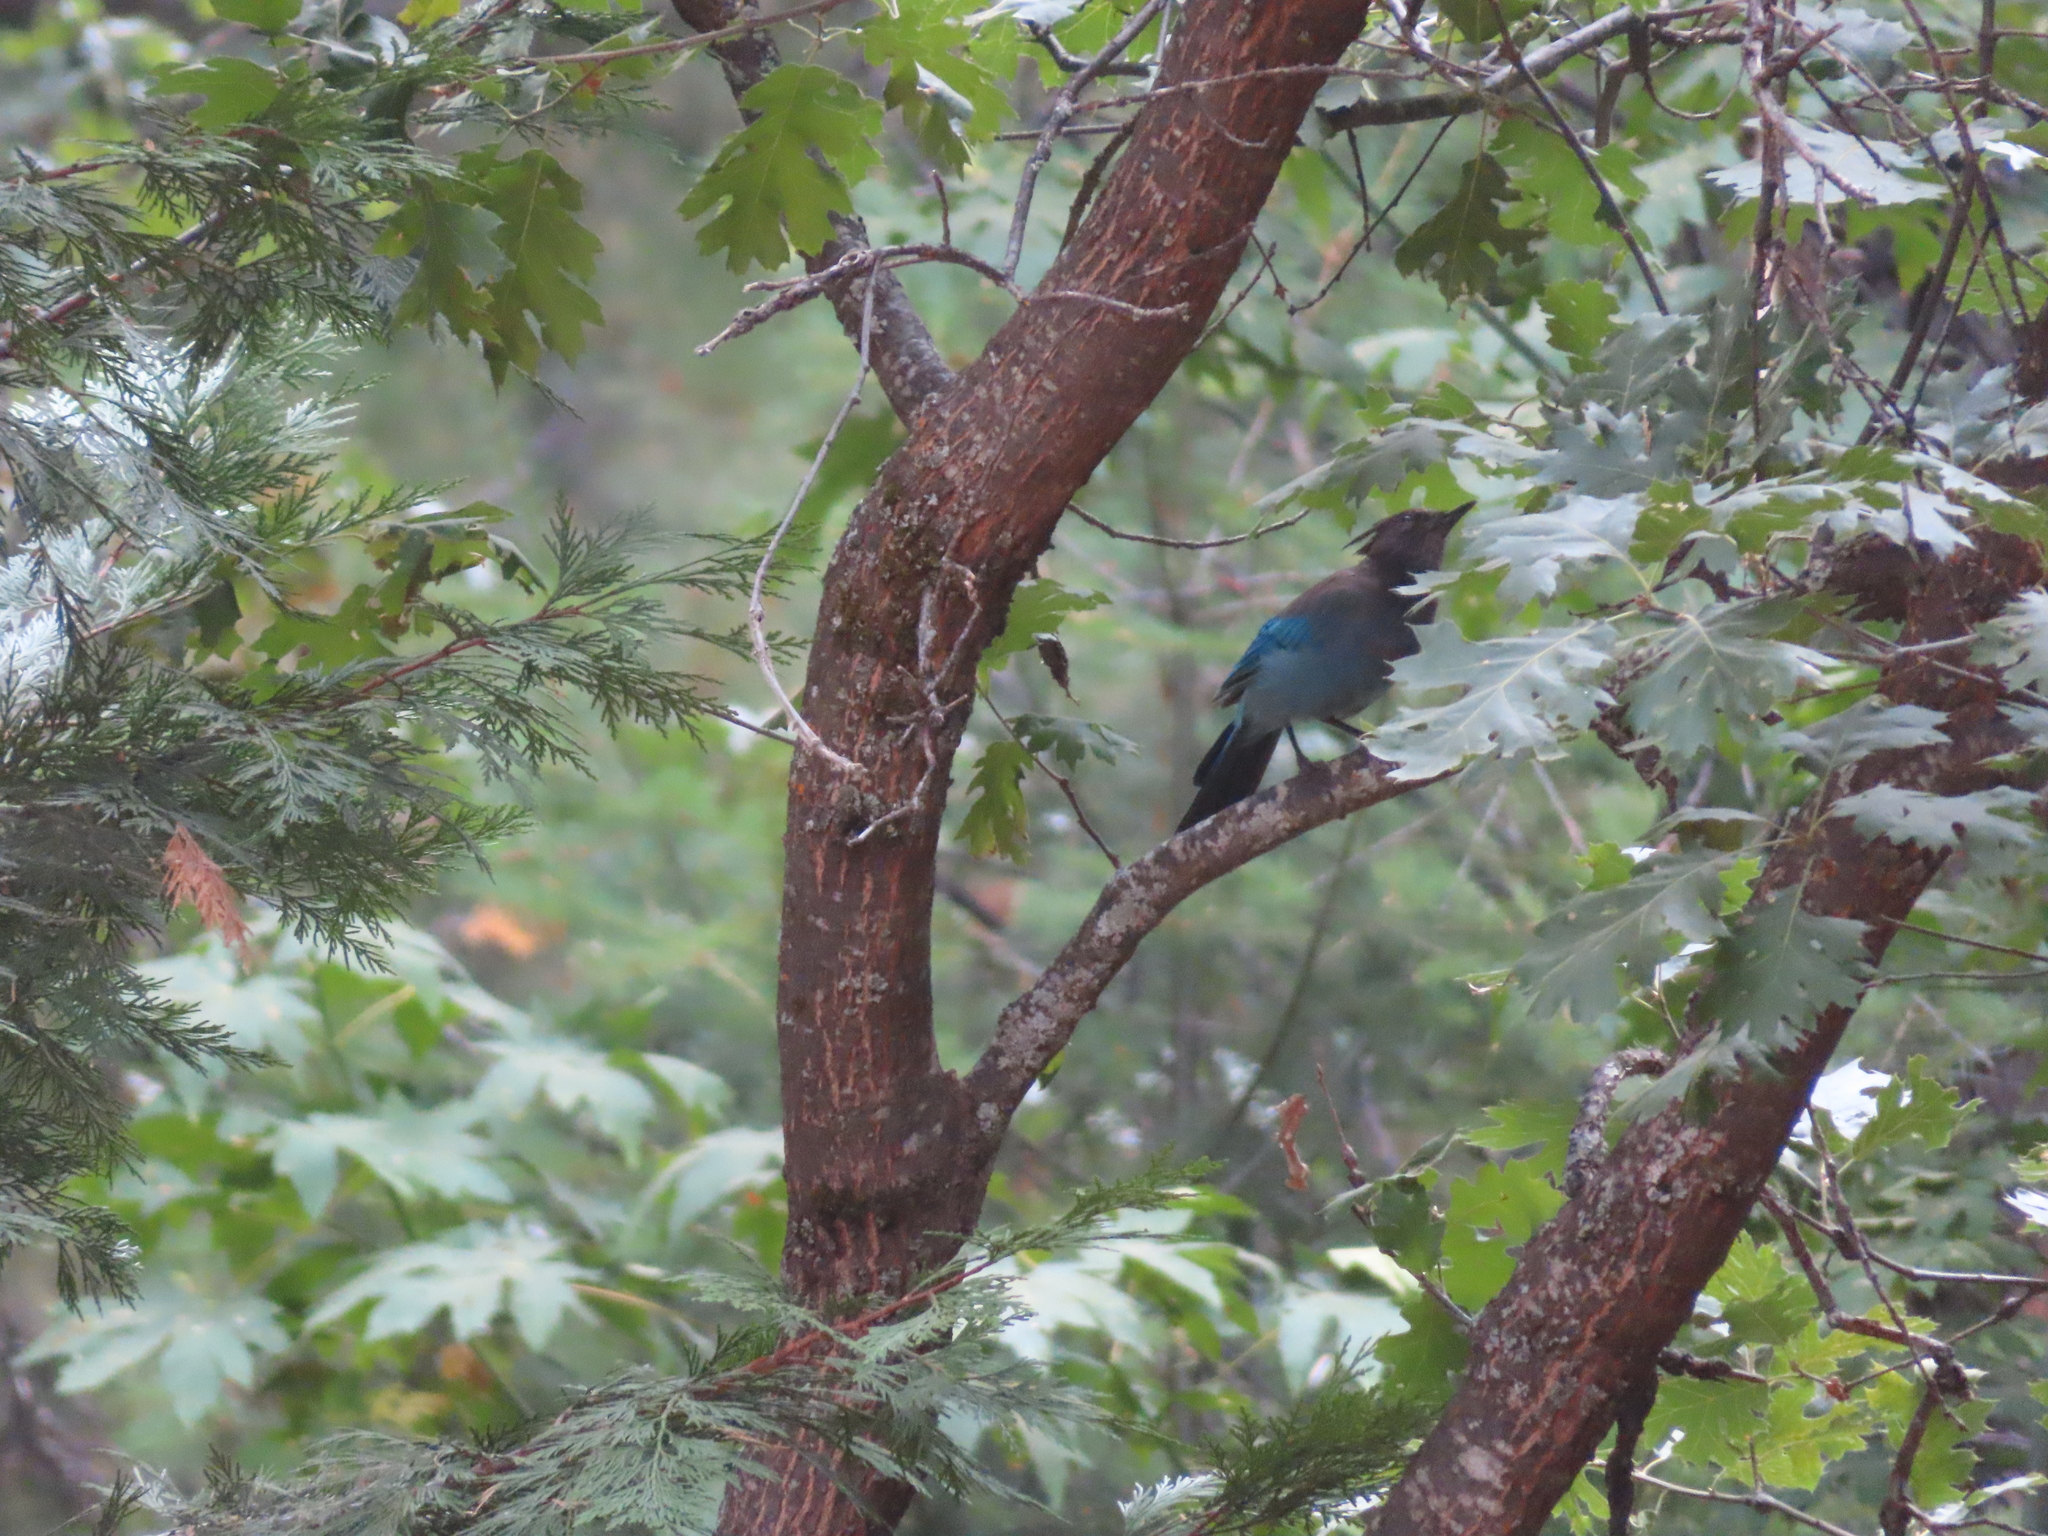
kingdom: Animalia
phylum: Chordata
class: Aves
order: Passeriformes
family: Corvidae
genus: Cyanocitta
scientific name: Cyanocitta stelleri
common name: Steller's jay
